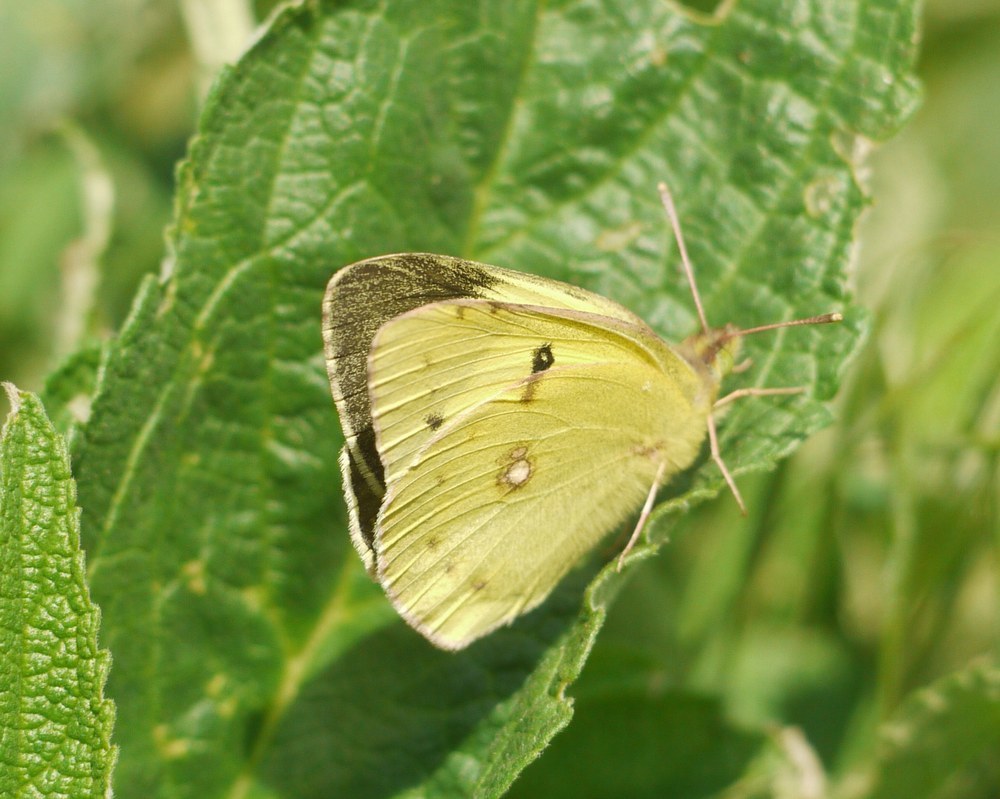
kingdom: Animalia
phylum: Arthropoda
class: Insecta
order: Lepidoptera
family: Pieridae
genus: Colias
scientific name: Colias erate
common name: Eastern pale clouded yellow
